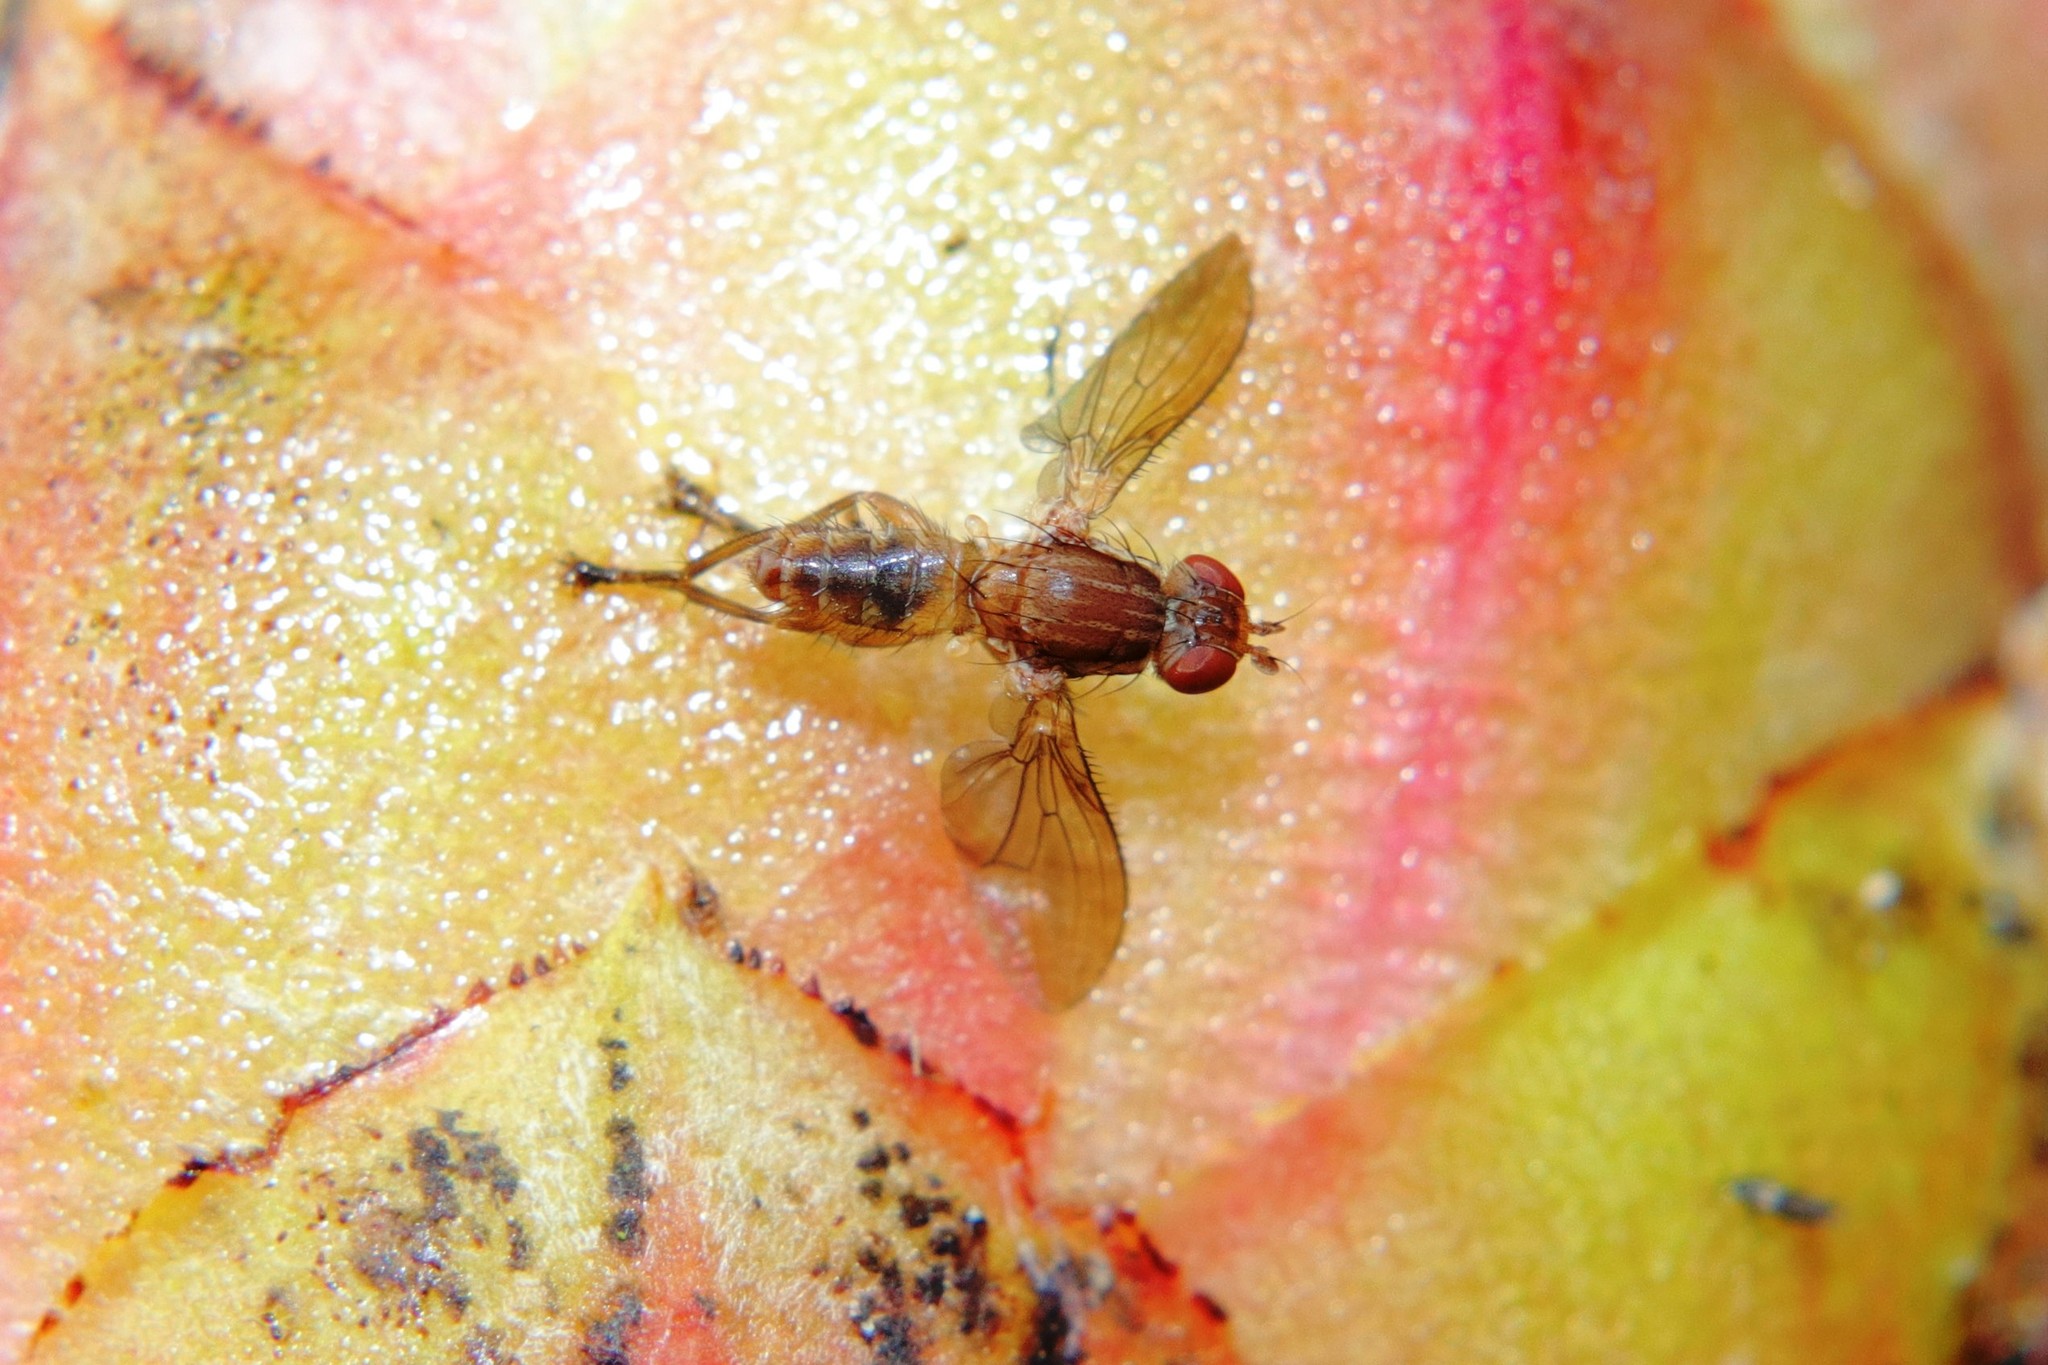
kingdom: Animalia
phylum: Arthropoda
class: Insecta
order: Diptera
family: Helosciomyzidae
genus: Napaeosciomyza
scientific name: Napaeosciomyza spinicosta
